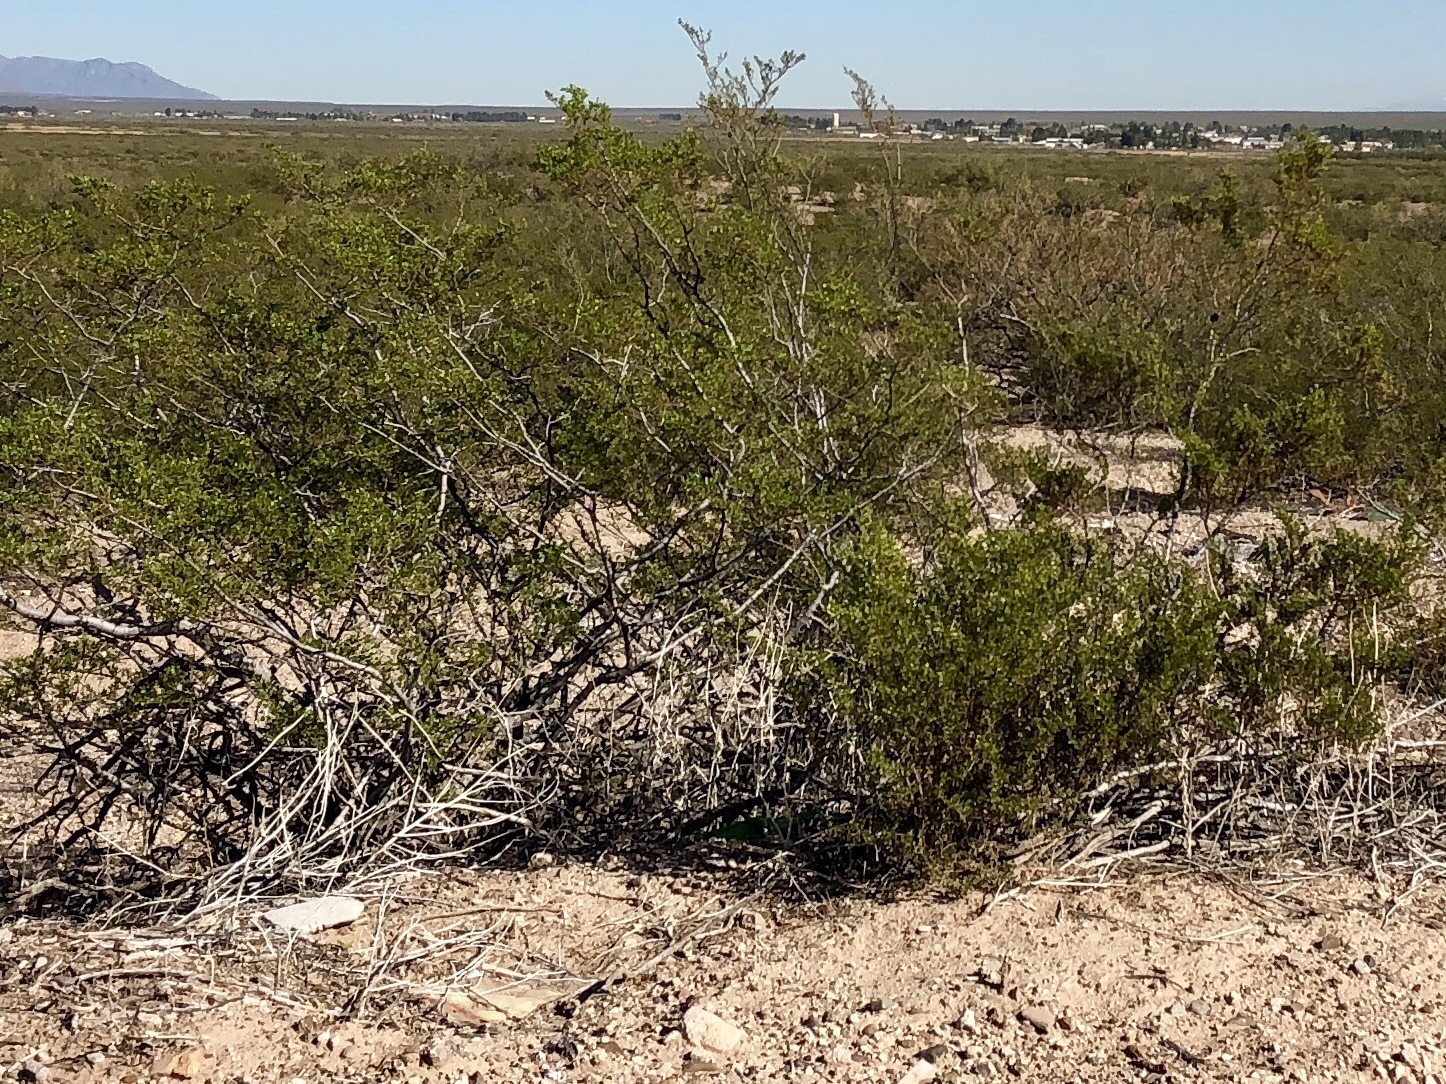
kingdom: Plantae
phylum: Tracheophyta
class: Magnoliopsida
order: Zygophyllales
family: Zygophyllaceae
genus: Larrea
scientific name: Larrea tridentata
